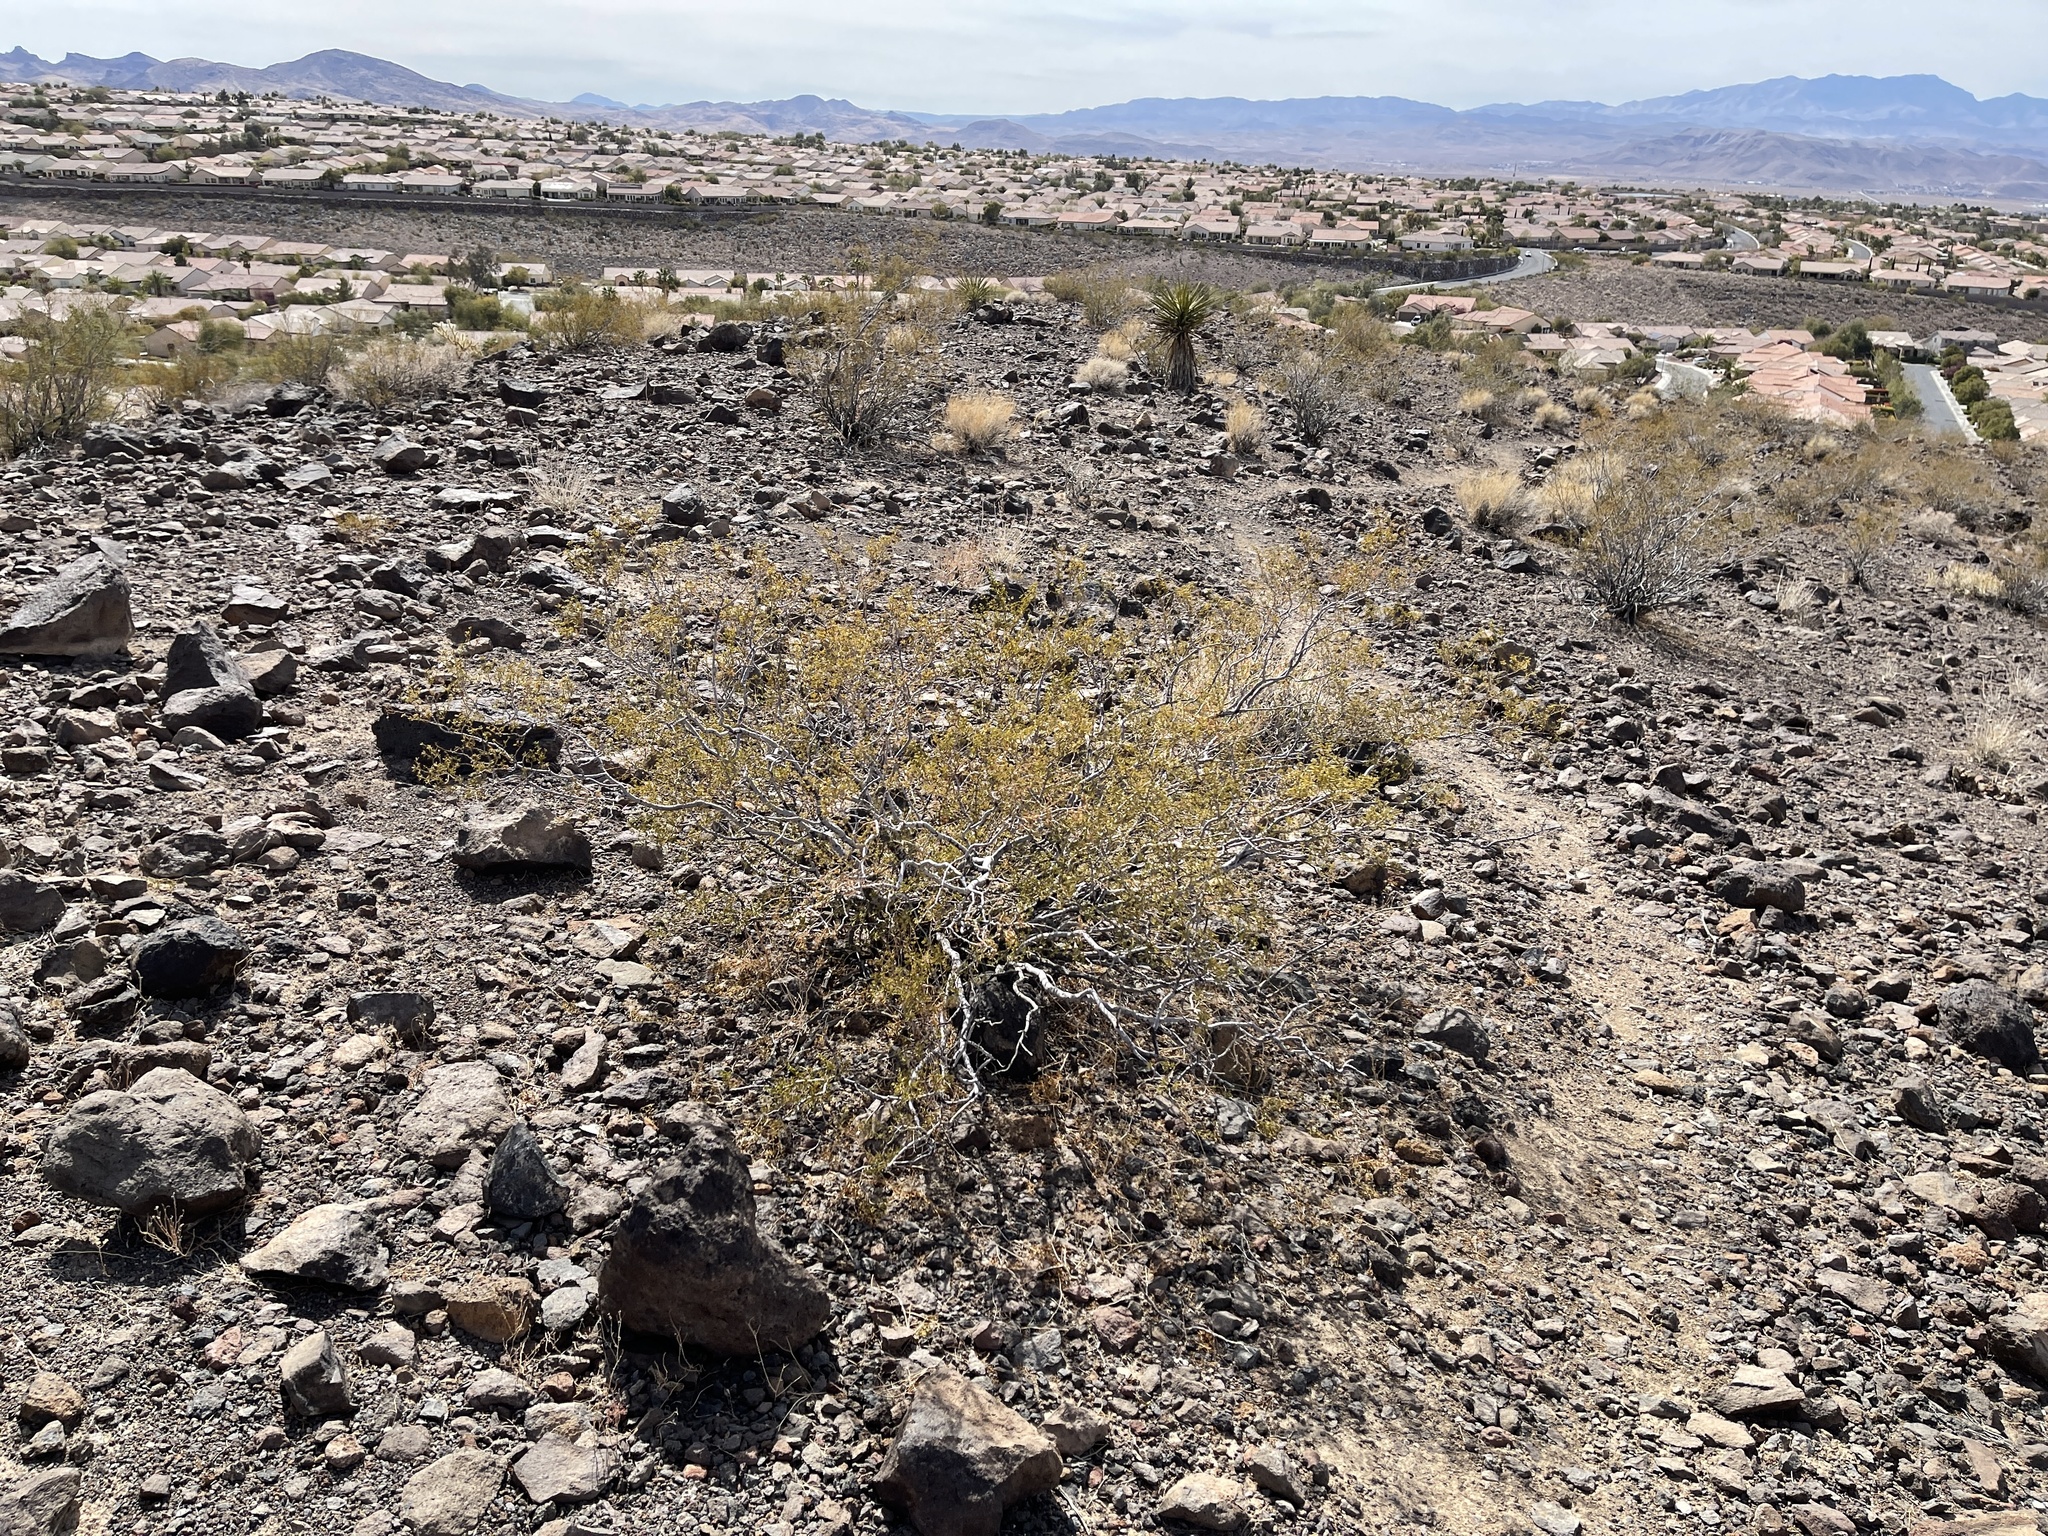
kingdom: Plantae
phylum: Tracheophyta
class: Magnoliopsida
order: Zygophyllales
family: Zygophyllaceae
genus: Larrea
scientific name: Larrea tridentata
